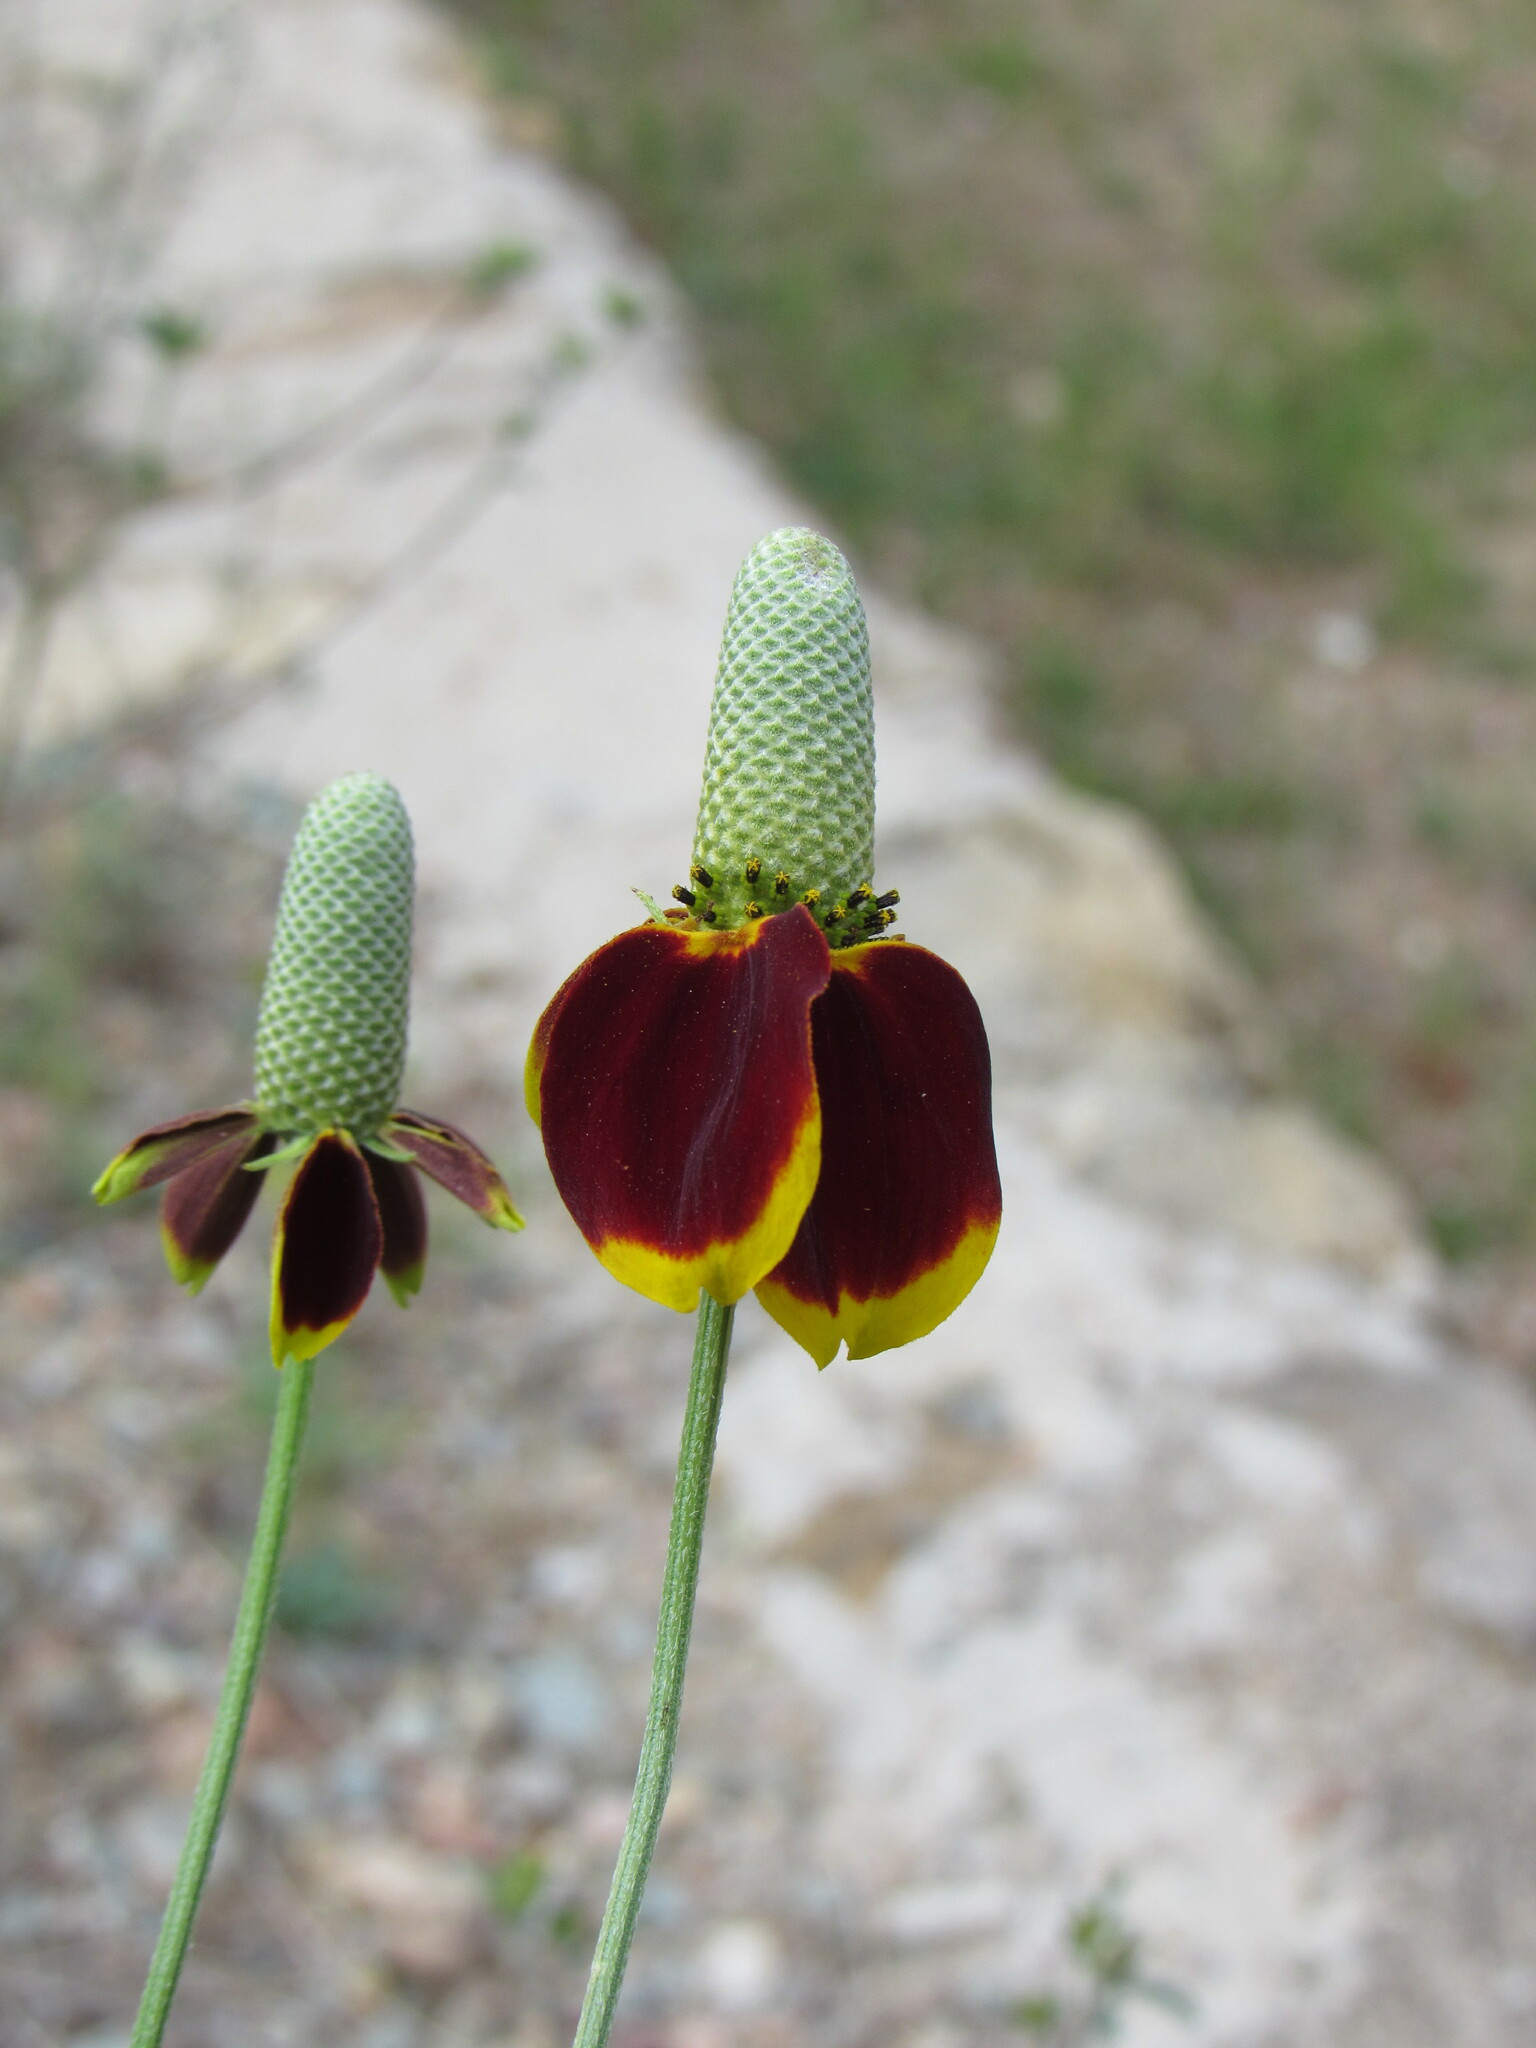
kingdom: Plantae
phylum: Tracheophyta
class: Magnoliopsida
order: Asterales
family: Asteraceae
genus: Ratibida
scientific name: Ratibida columnifera
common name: Prairie coneflower
